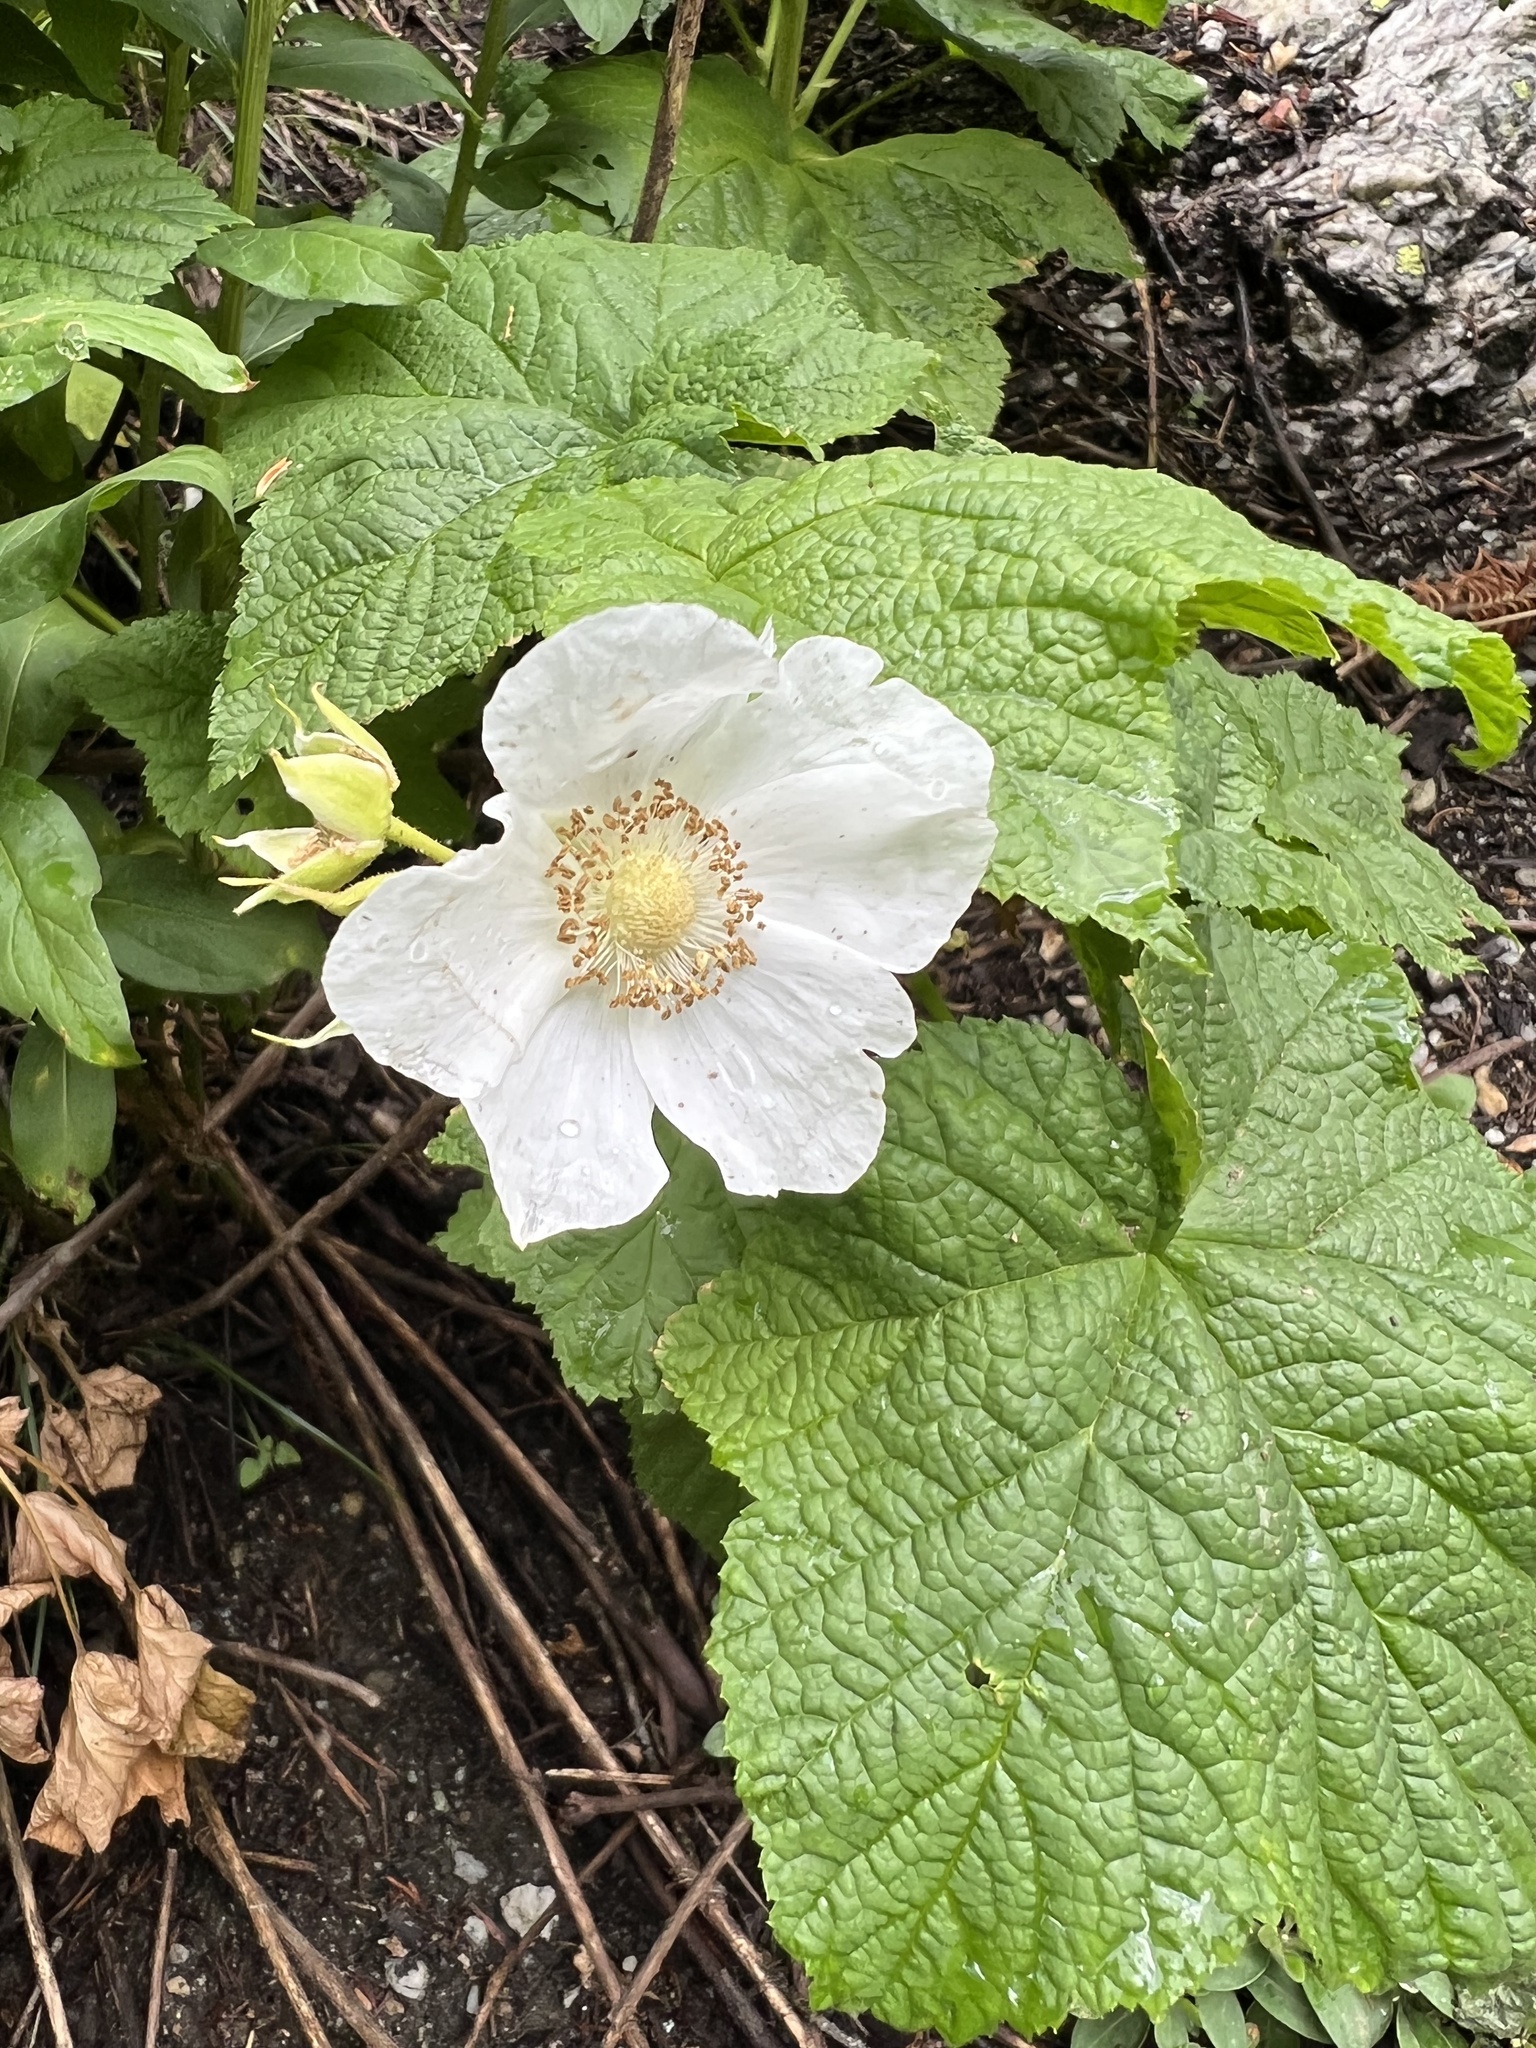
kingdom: Plantae
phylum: Tracheophyta
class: Magnoliopsida
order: Rosales
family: Rosaceae
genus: Rubus
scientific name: Rubus parviflorus
